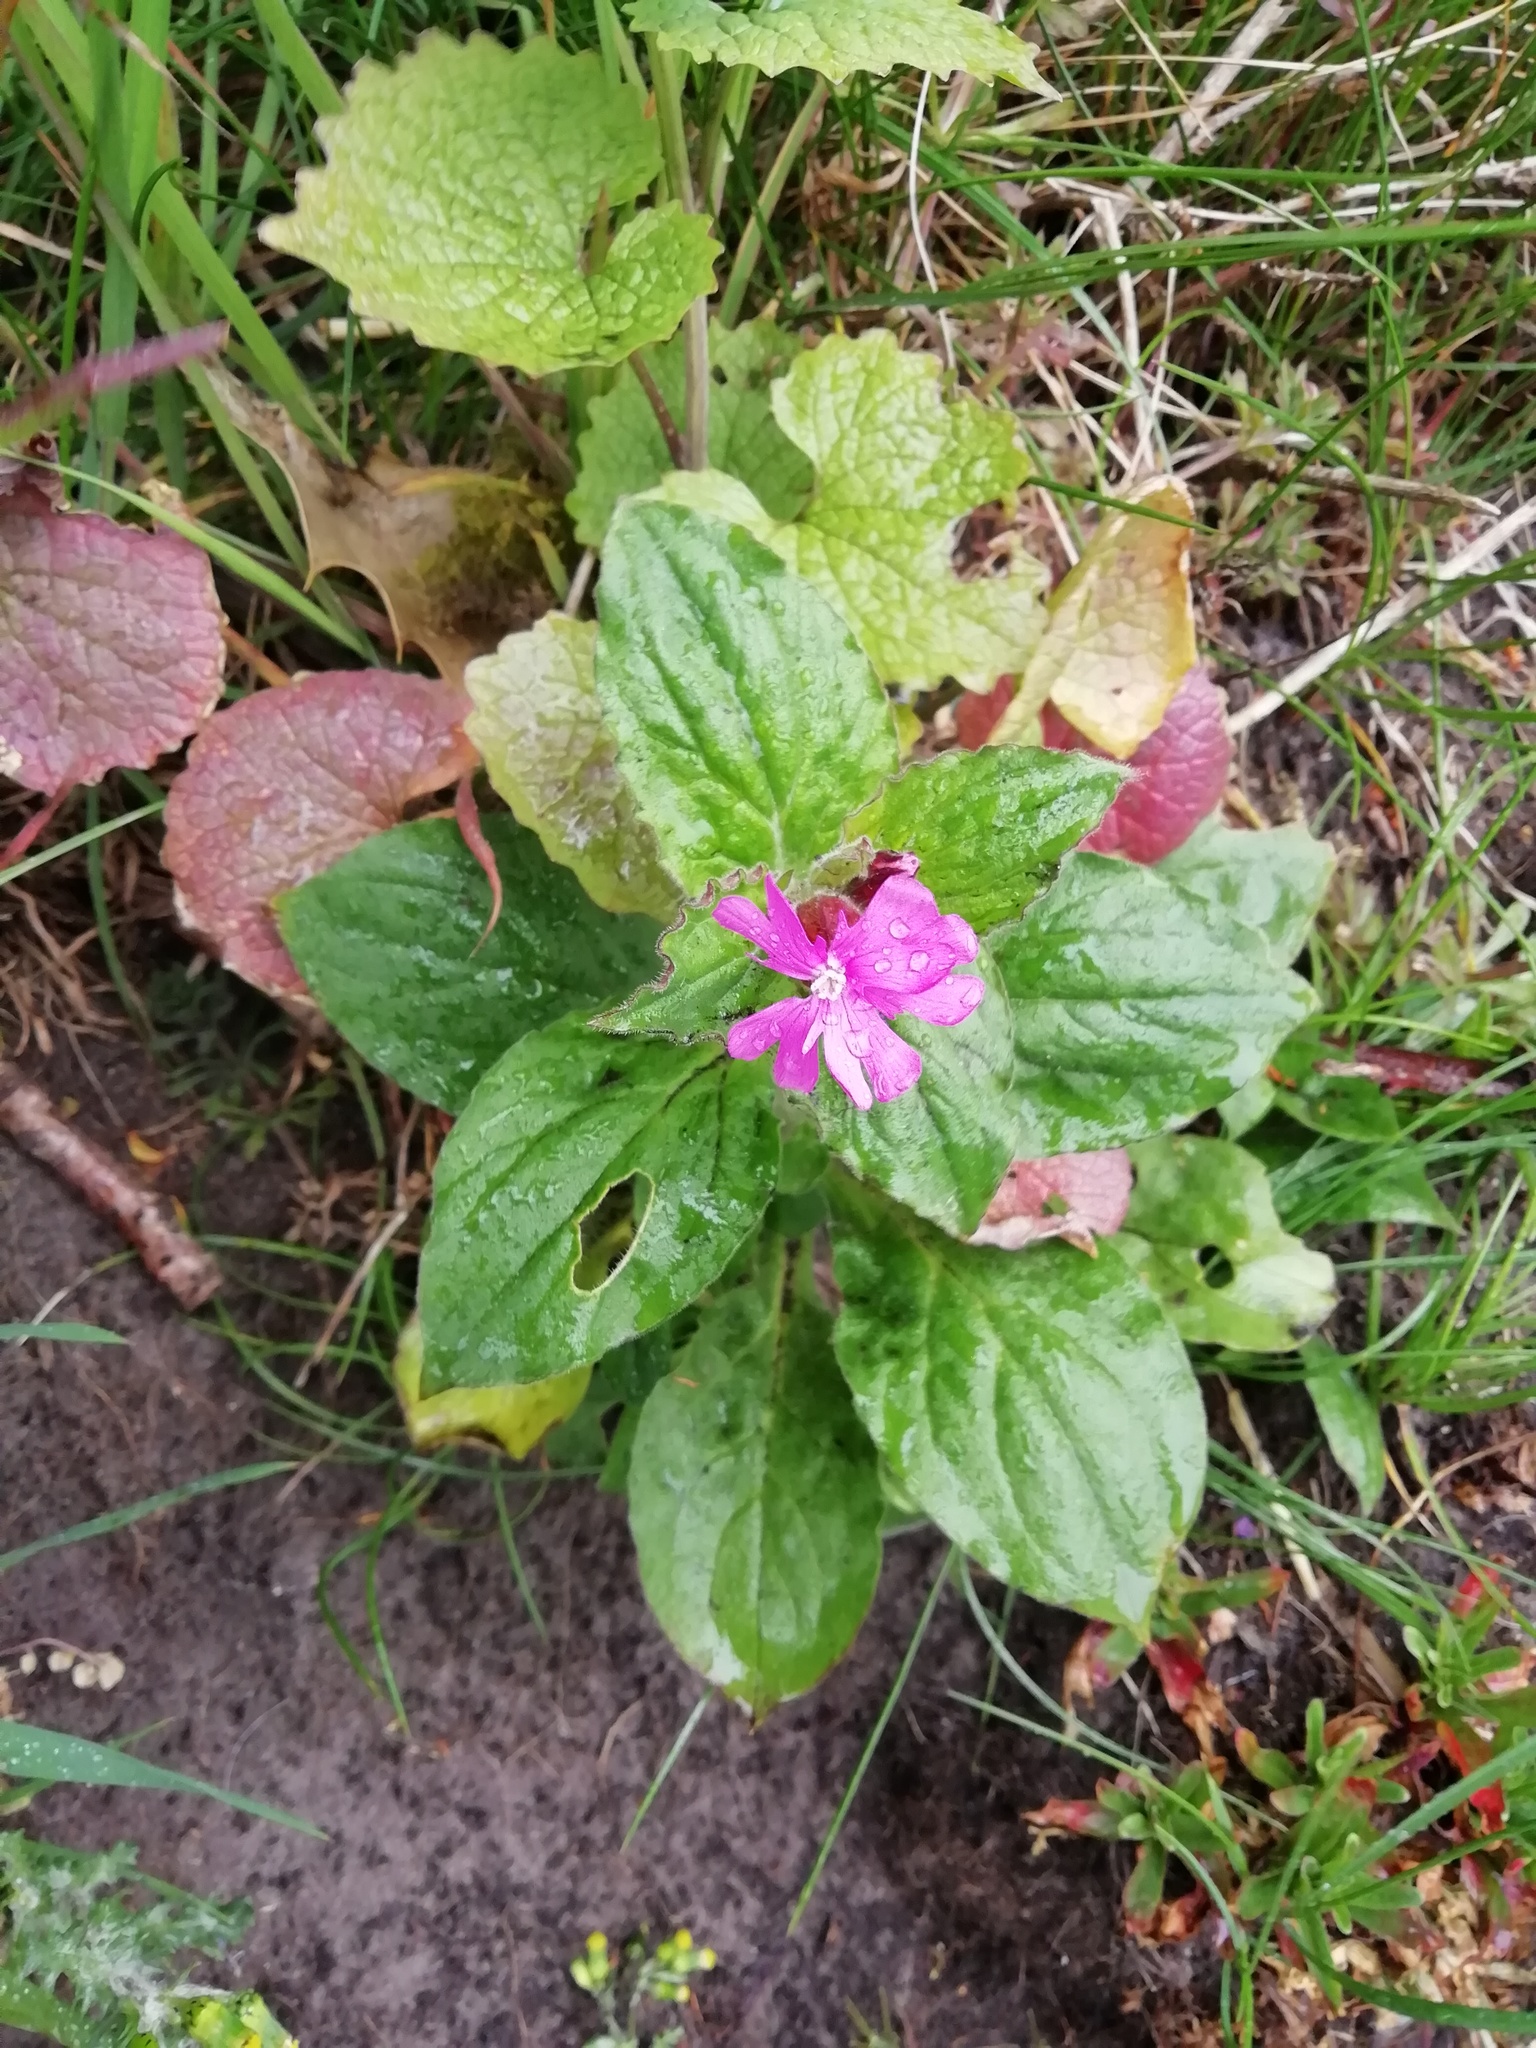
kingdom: Plantae
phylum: Tracheophyta
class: Magnoliopsida
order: Caryophyllales
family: Caryophyllaceae
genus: Silene
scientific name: Silene dioica
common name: Red campion
